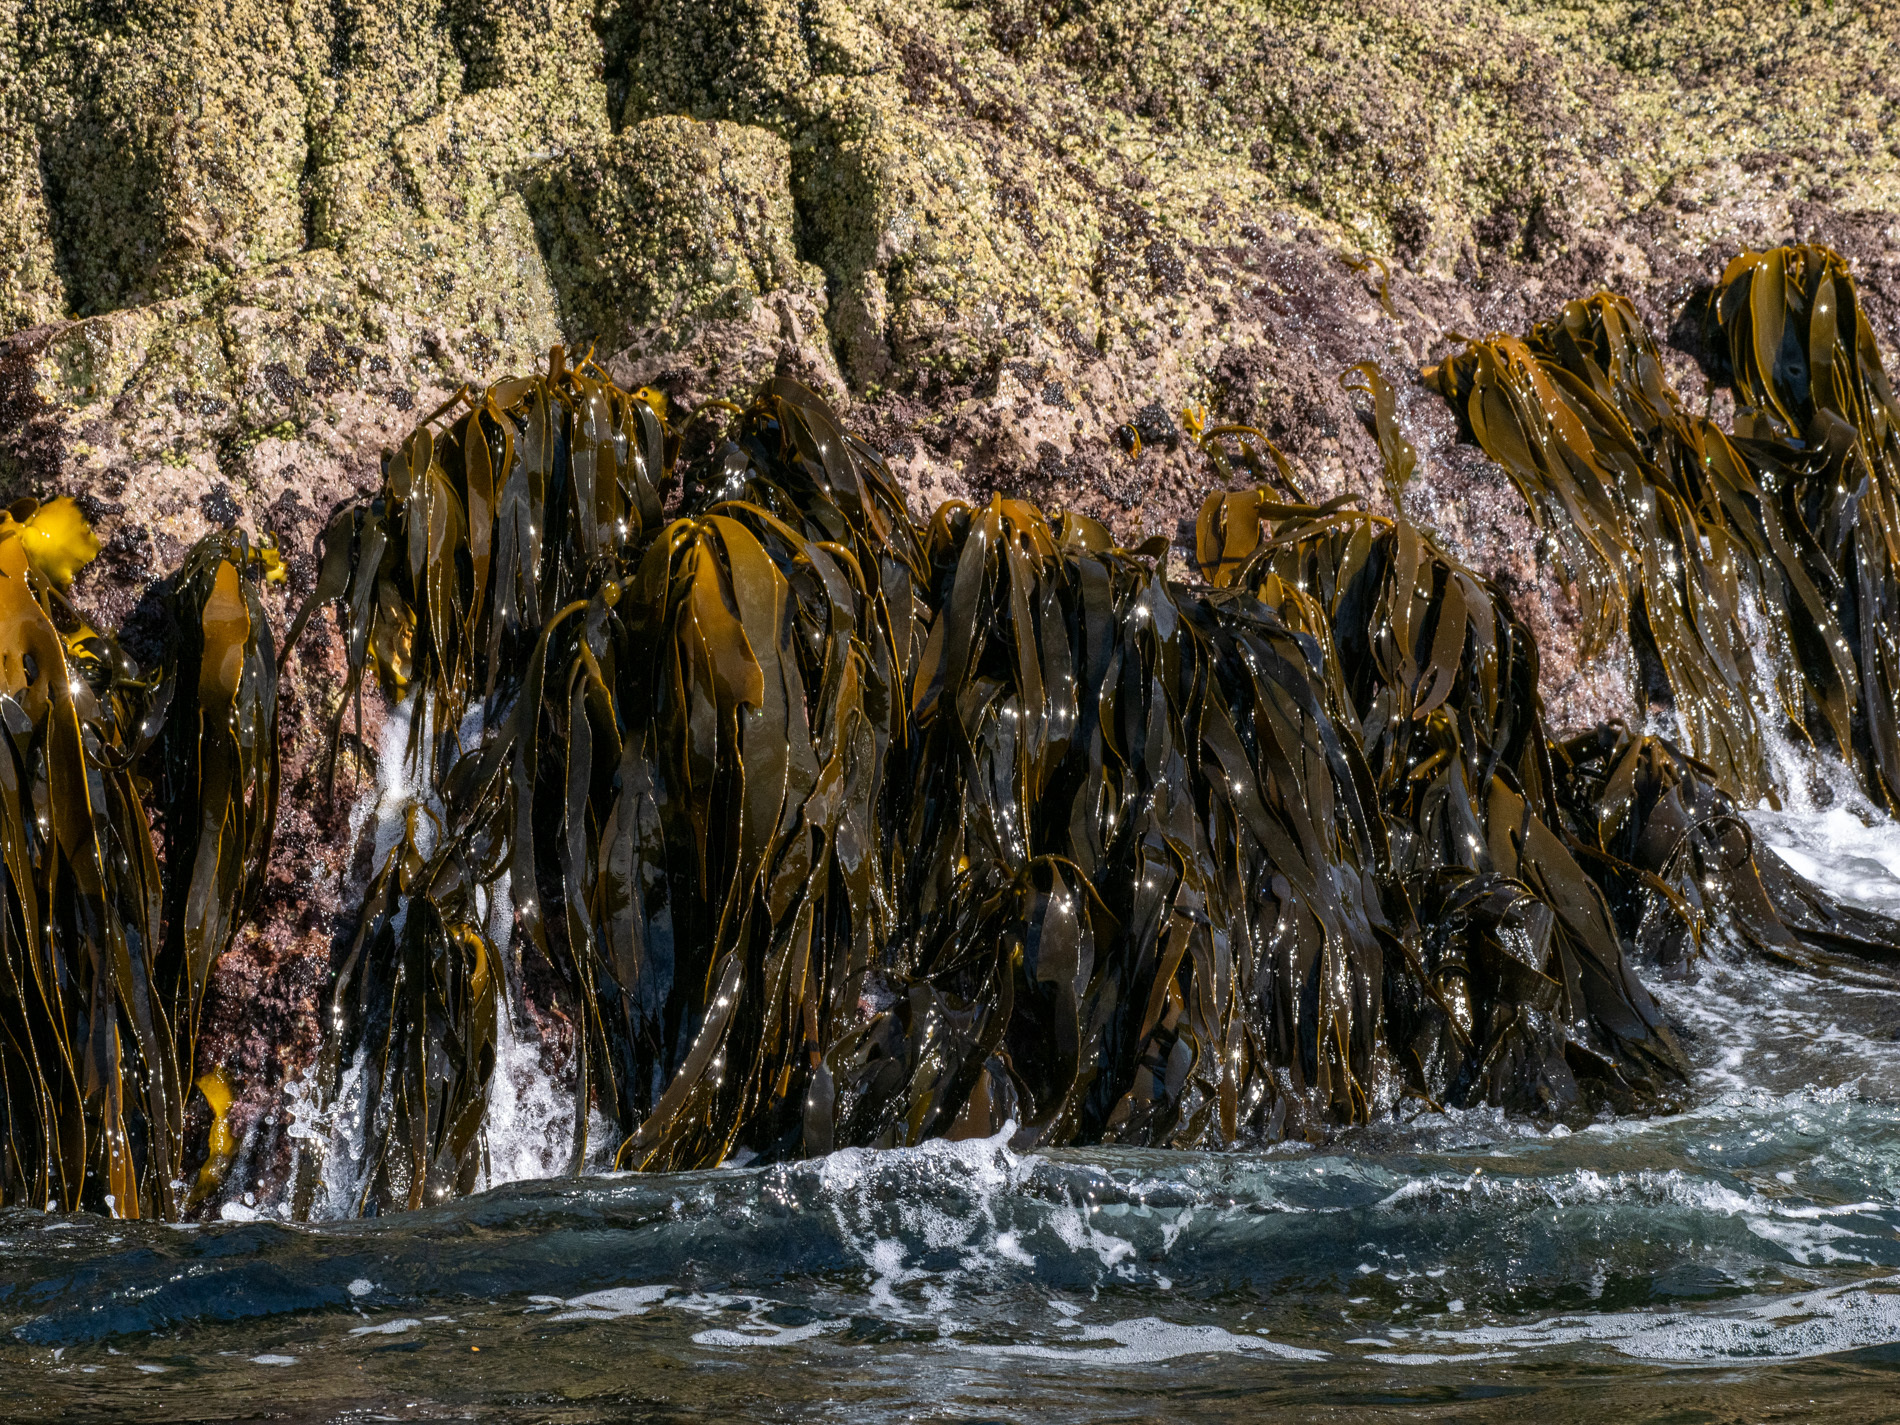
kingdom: Chromista
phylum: Ochrophyta
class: Phaeophyceae
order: Fucales
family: Durvillaeaceae
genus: Durvillaea
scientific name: Durvillaea antarctica
